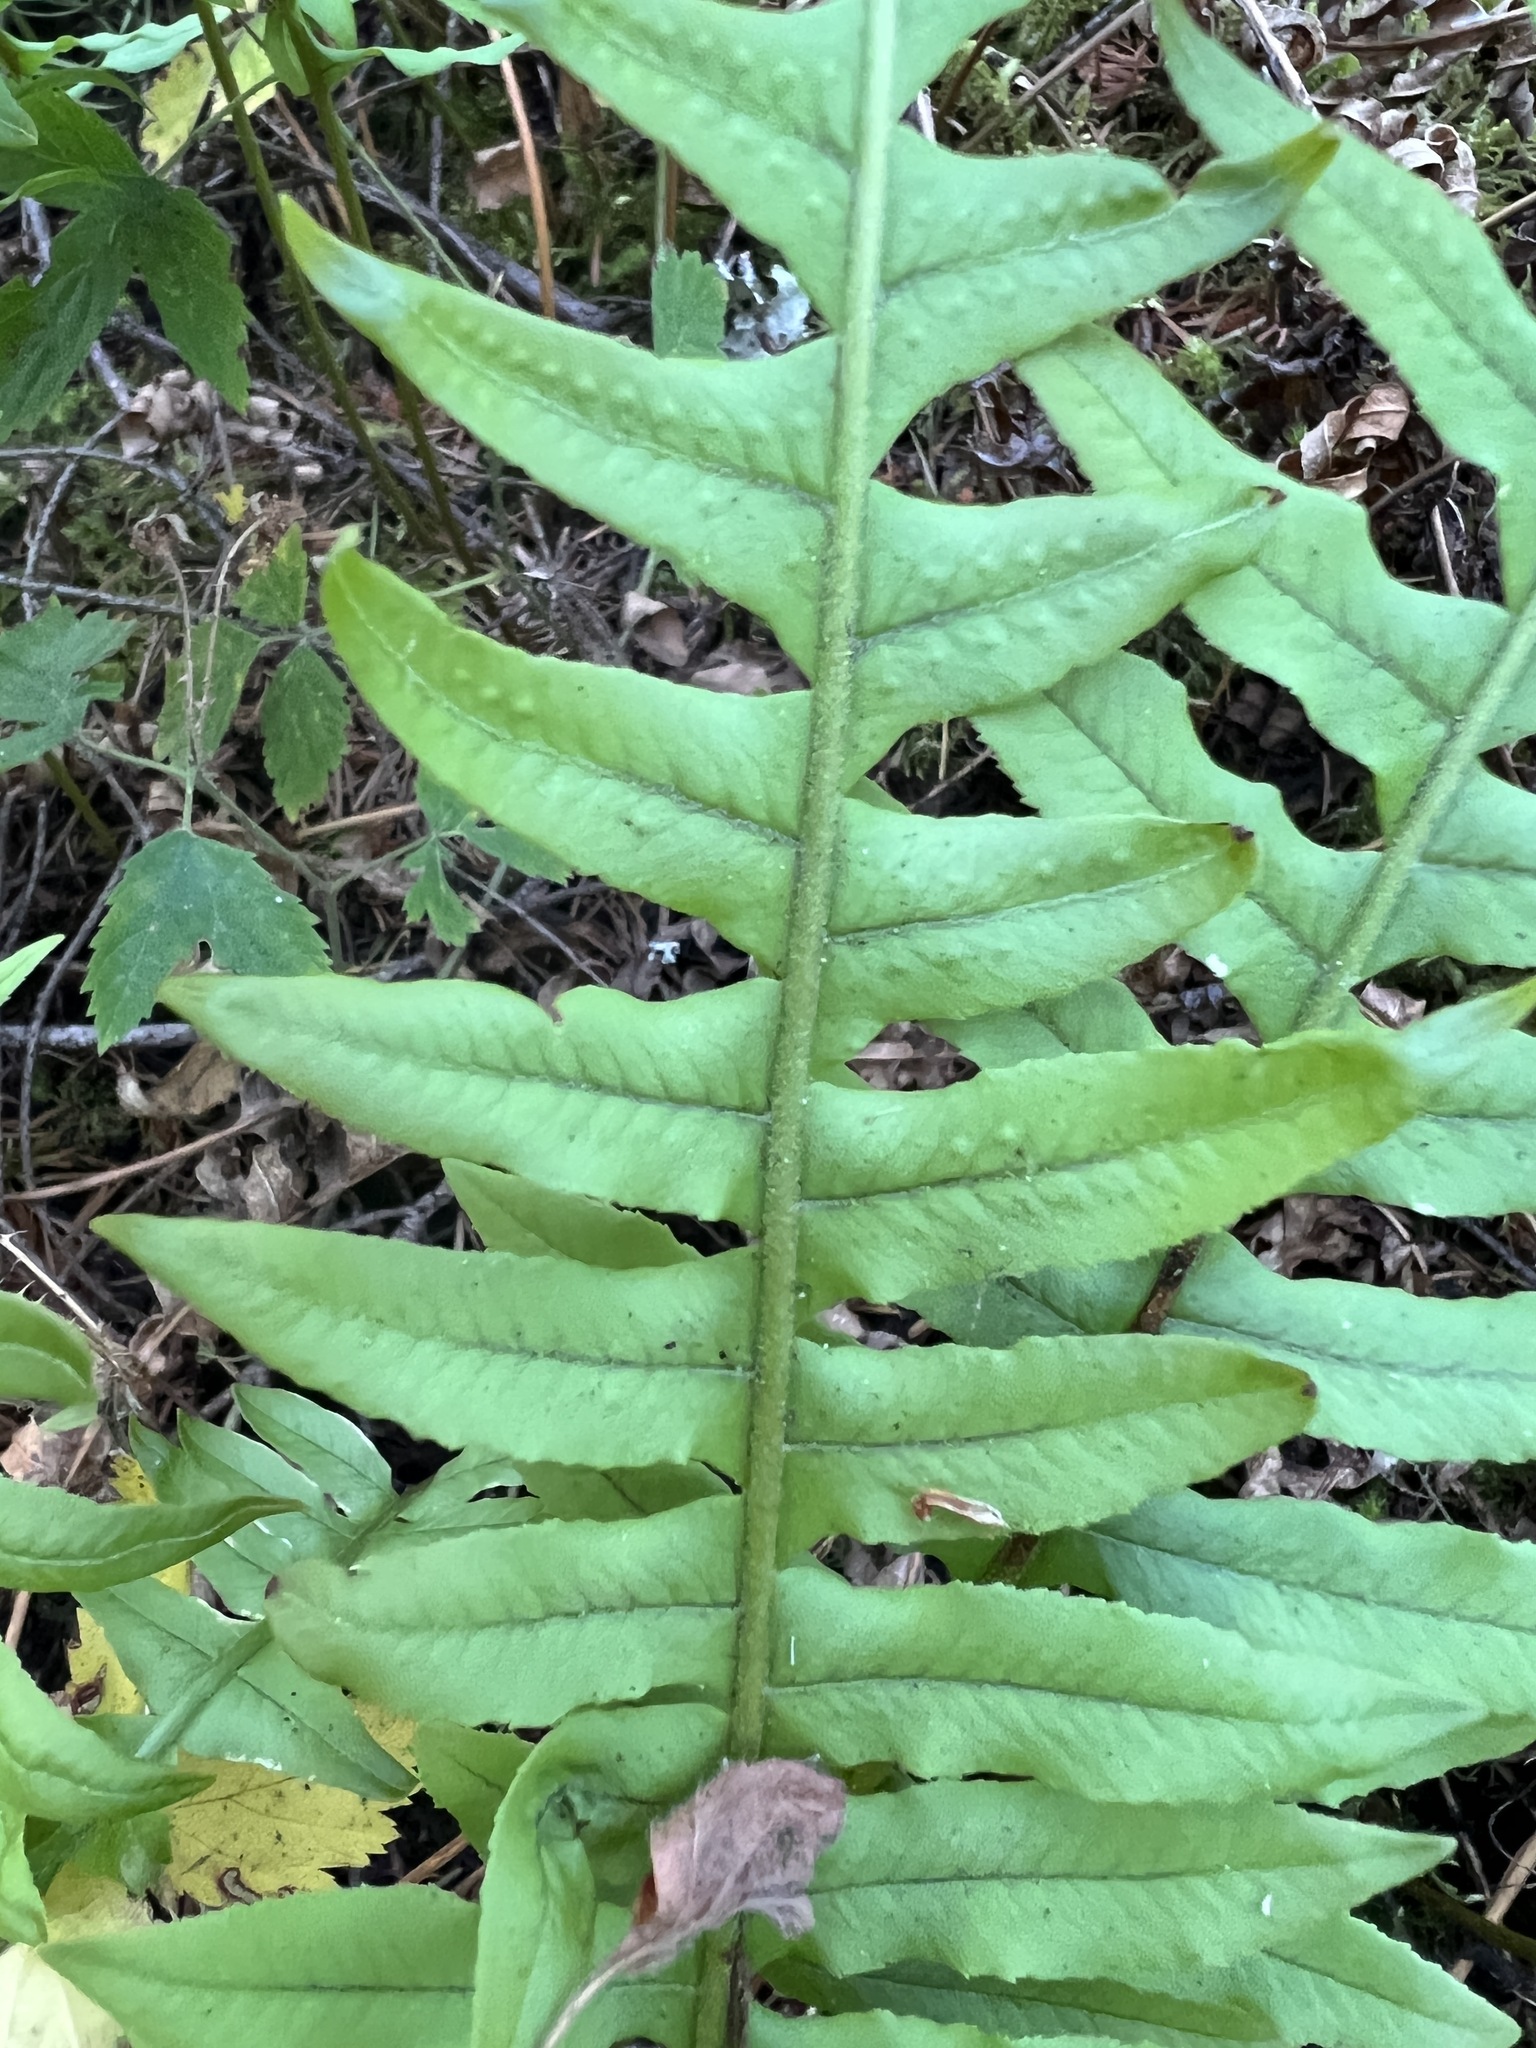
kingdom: Plantae
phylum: Tracheophyta
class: Polypodiopsida
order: Polypodiales
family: Polypodiaceae
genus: Polypodium
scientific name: Polypodium glycyrrhiza
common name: Licorice fern
